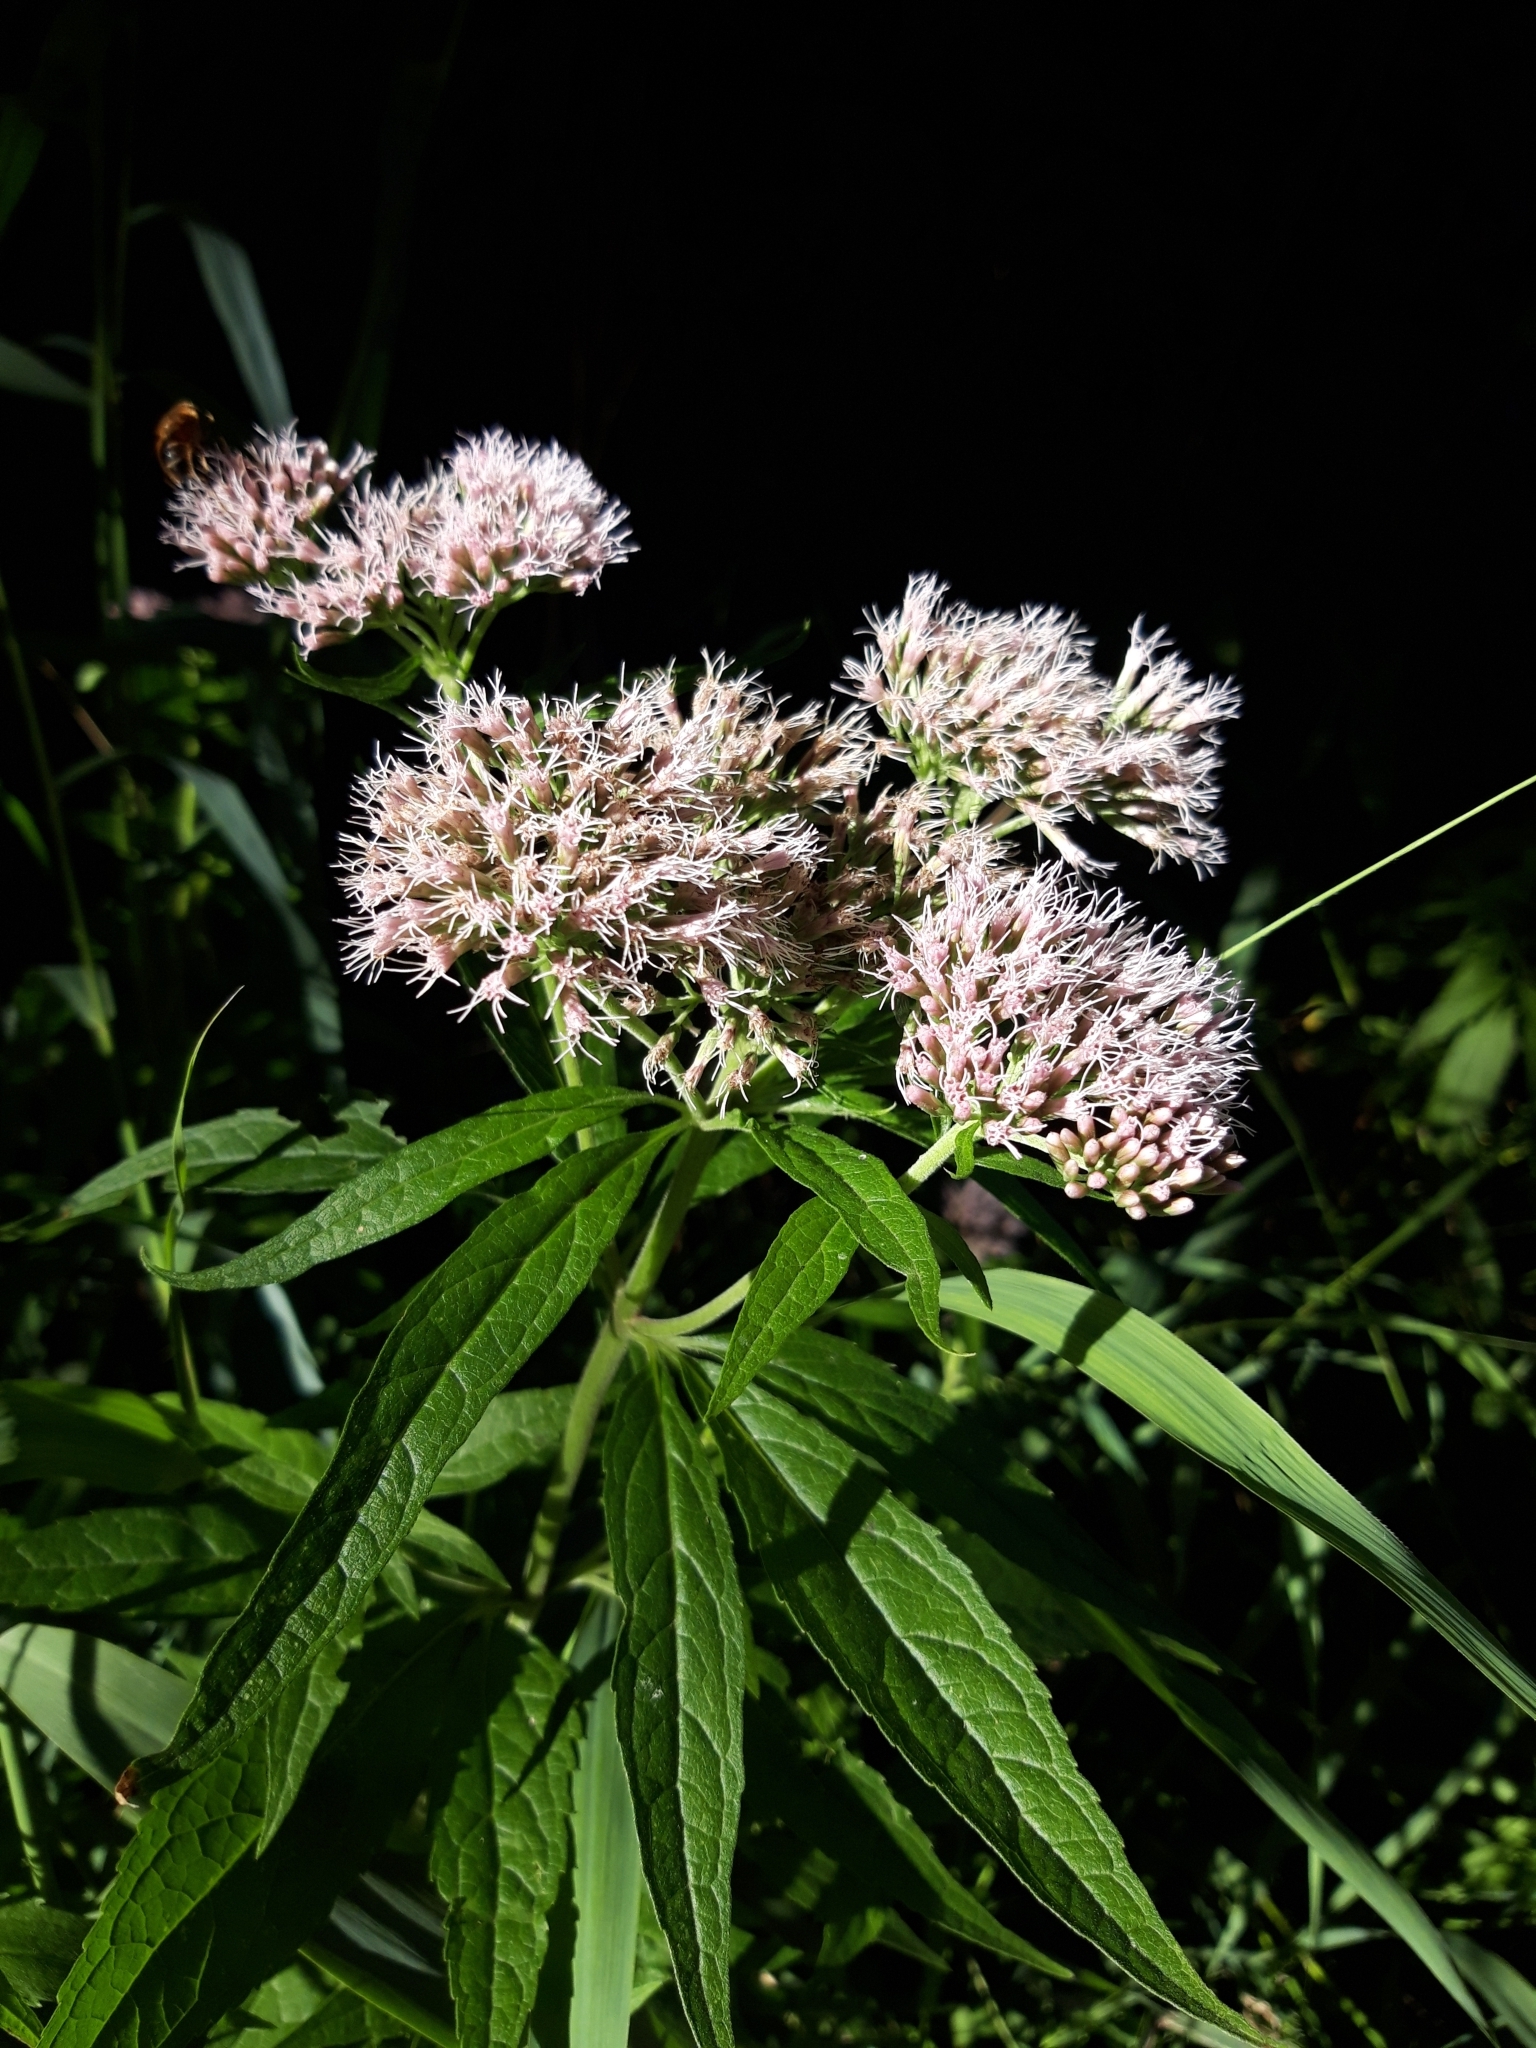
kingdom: Plantae
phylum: Tracheophyta
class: Magnoliopsida
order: Asterales
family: Asteraceae
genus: Eupatorium
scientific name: Eupatorium cannabinum
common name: Hemp-agrimony
